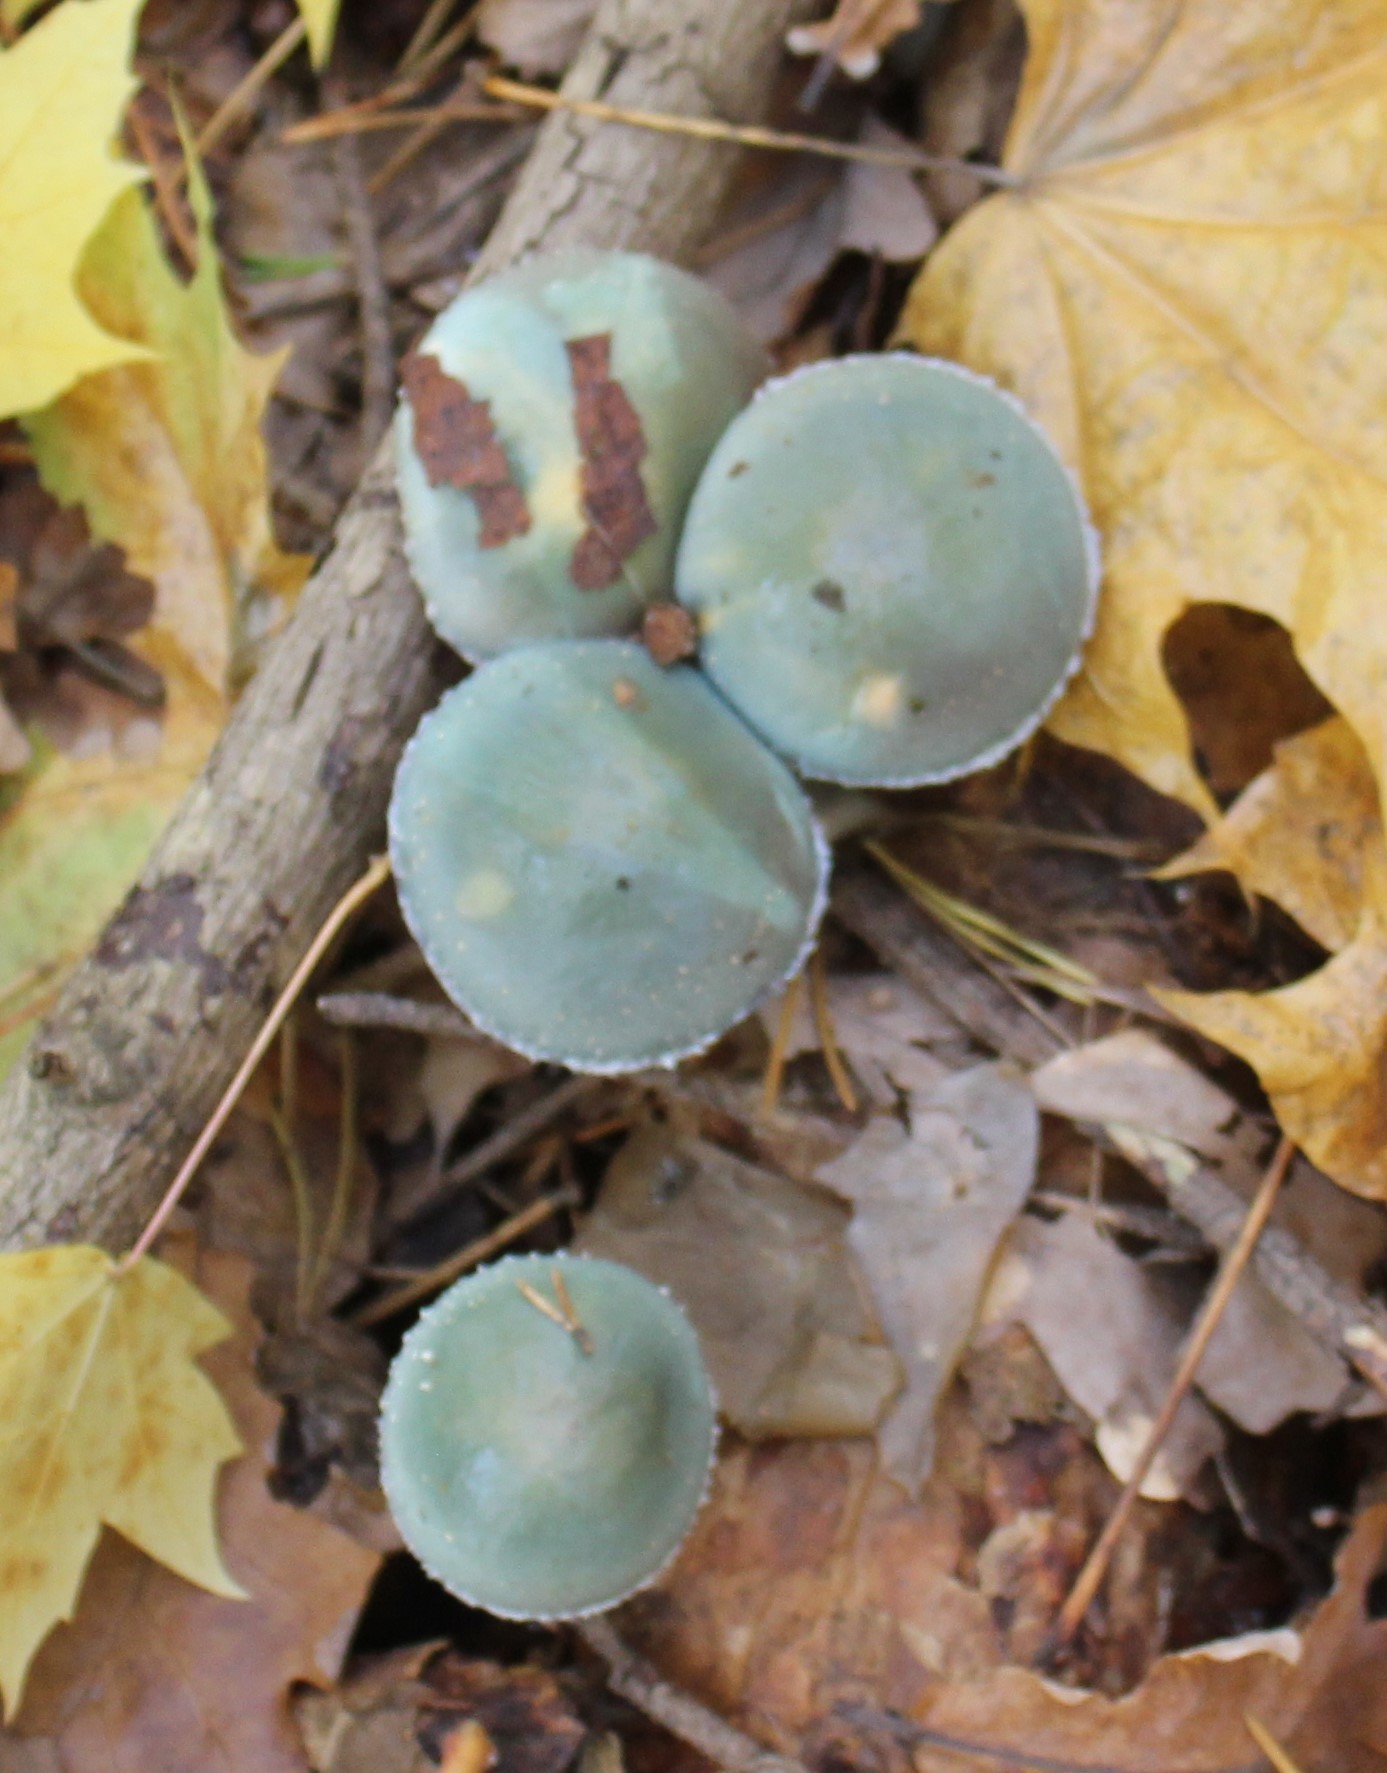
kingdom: Fungi
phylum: Basidiomycota
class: Agaricomycetes
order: Agaricales
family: Strophariaceae
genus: Stropharia
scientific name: Stropharia aeruginosa
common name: Verdigris roundhead
